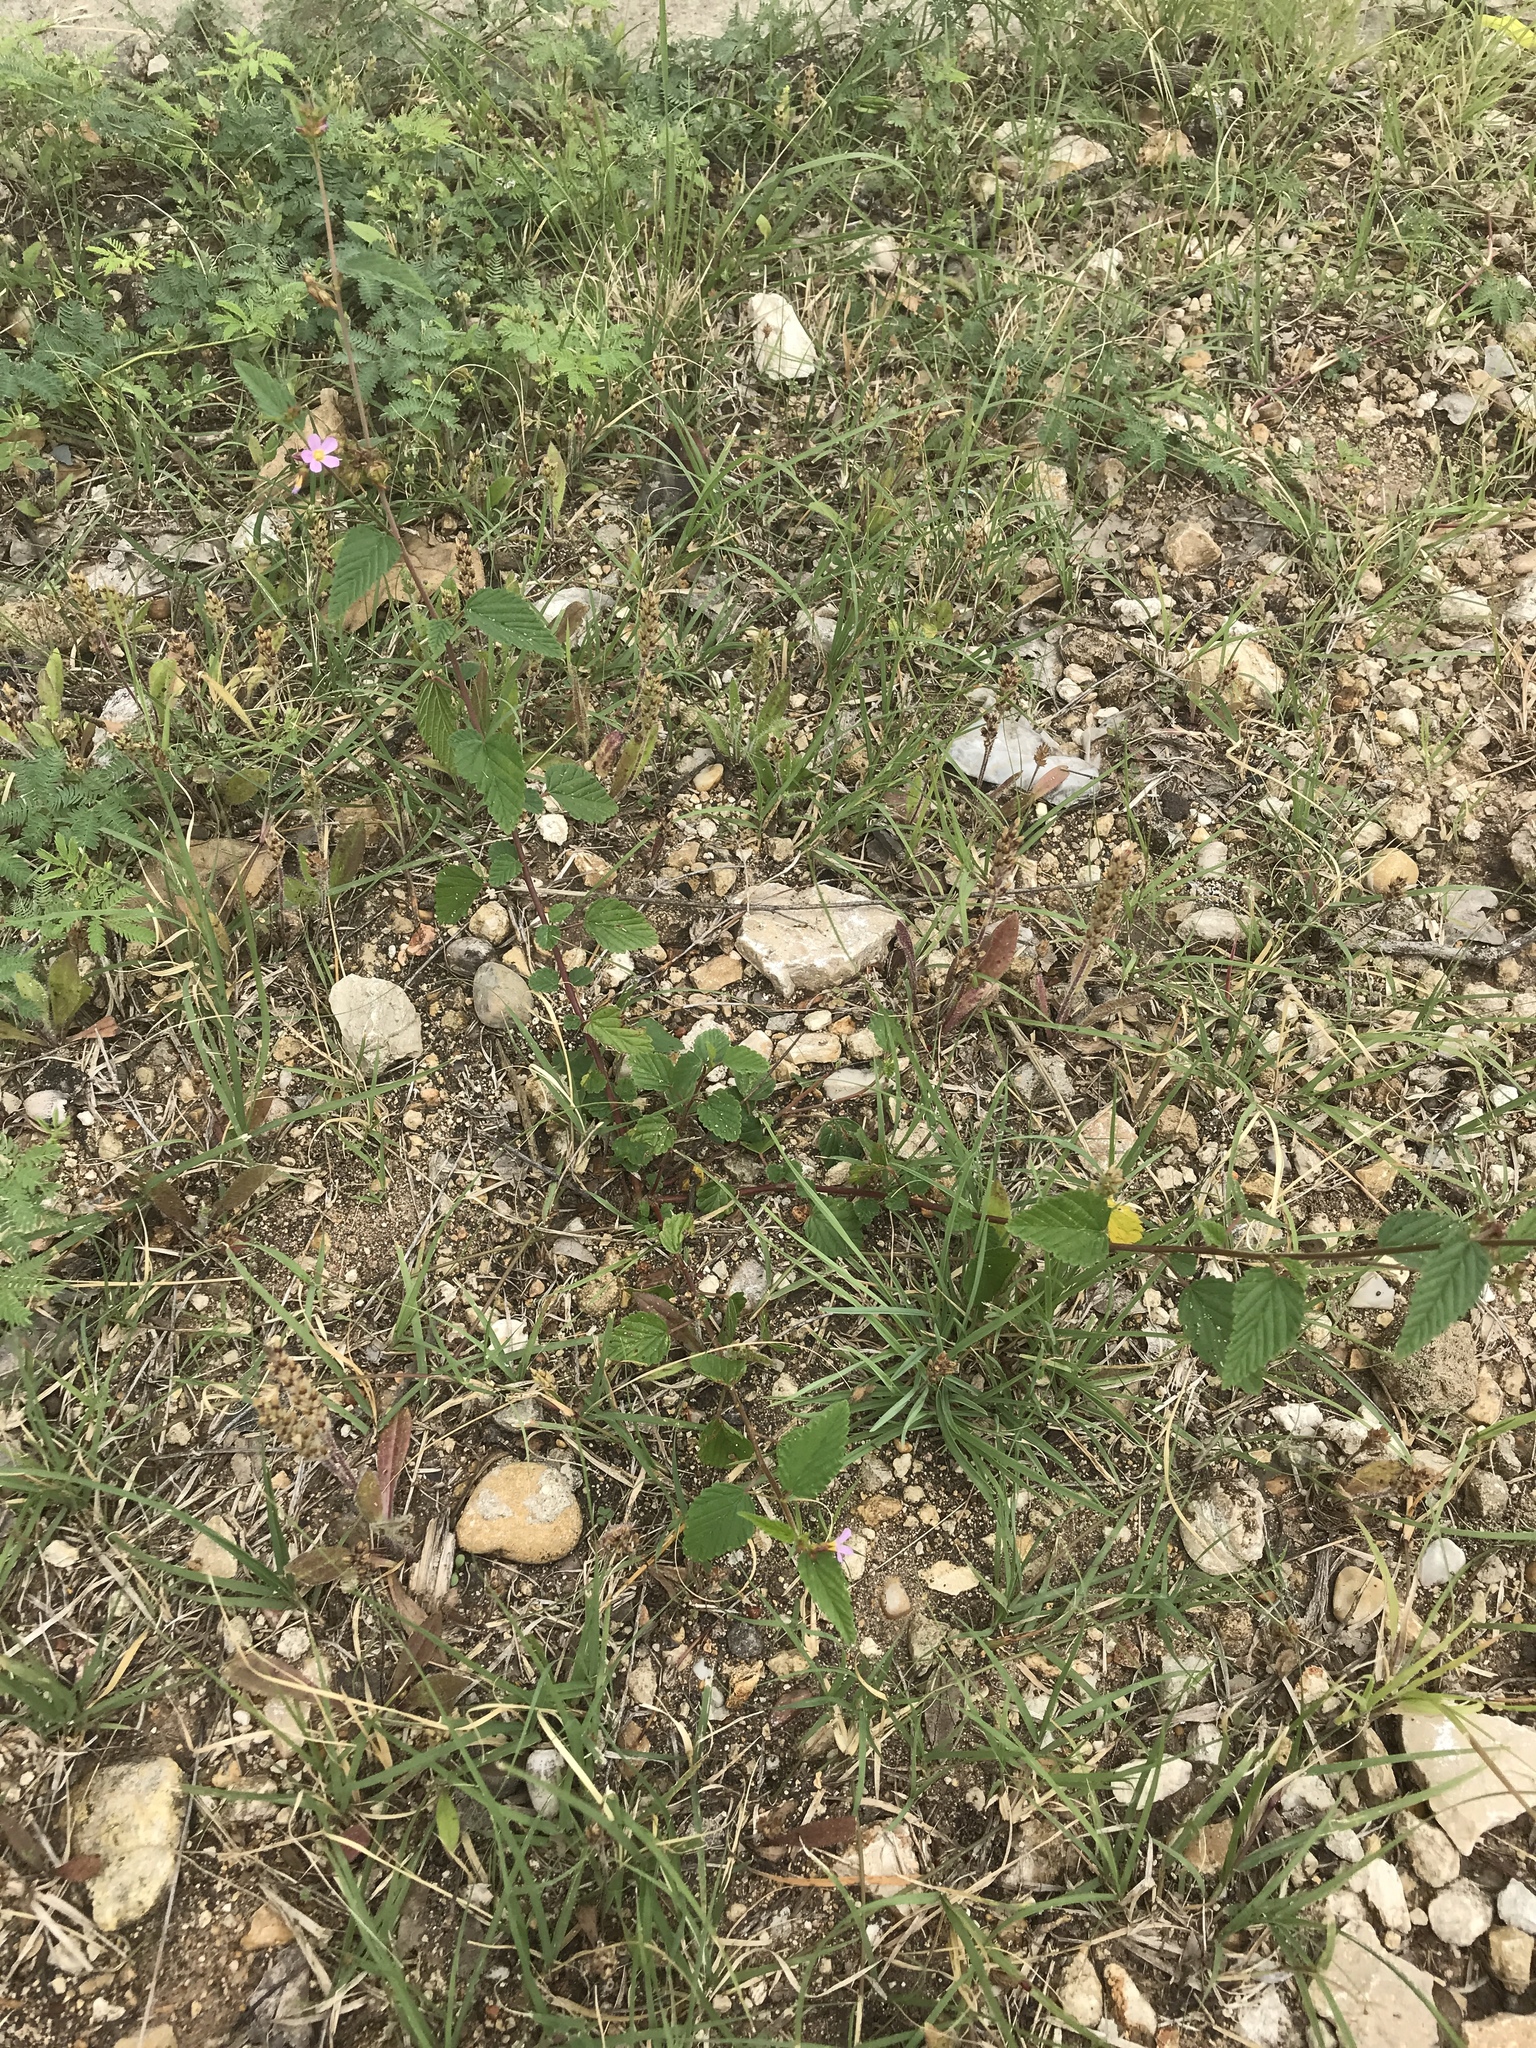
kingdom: Plantae
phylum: Tracheophyta
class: Magnoliopsida
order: Malvales
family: Malvaceae
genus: Melochia
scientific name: Melochia pyramidata
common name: Pyramidflower
